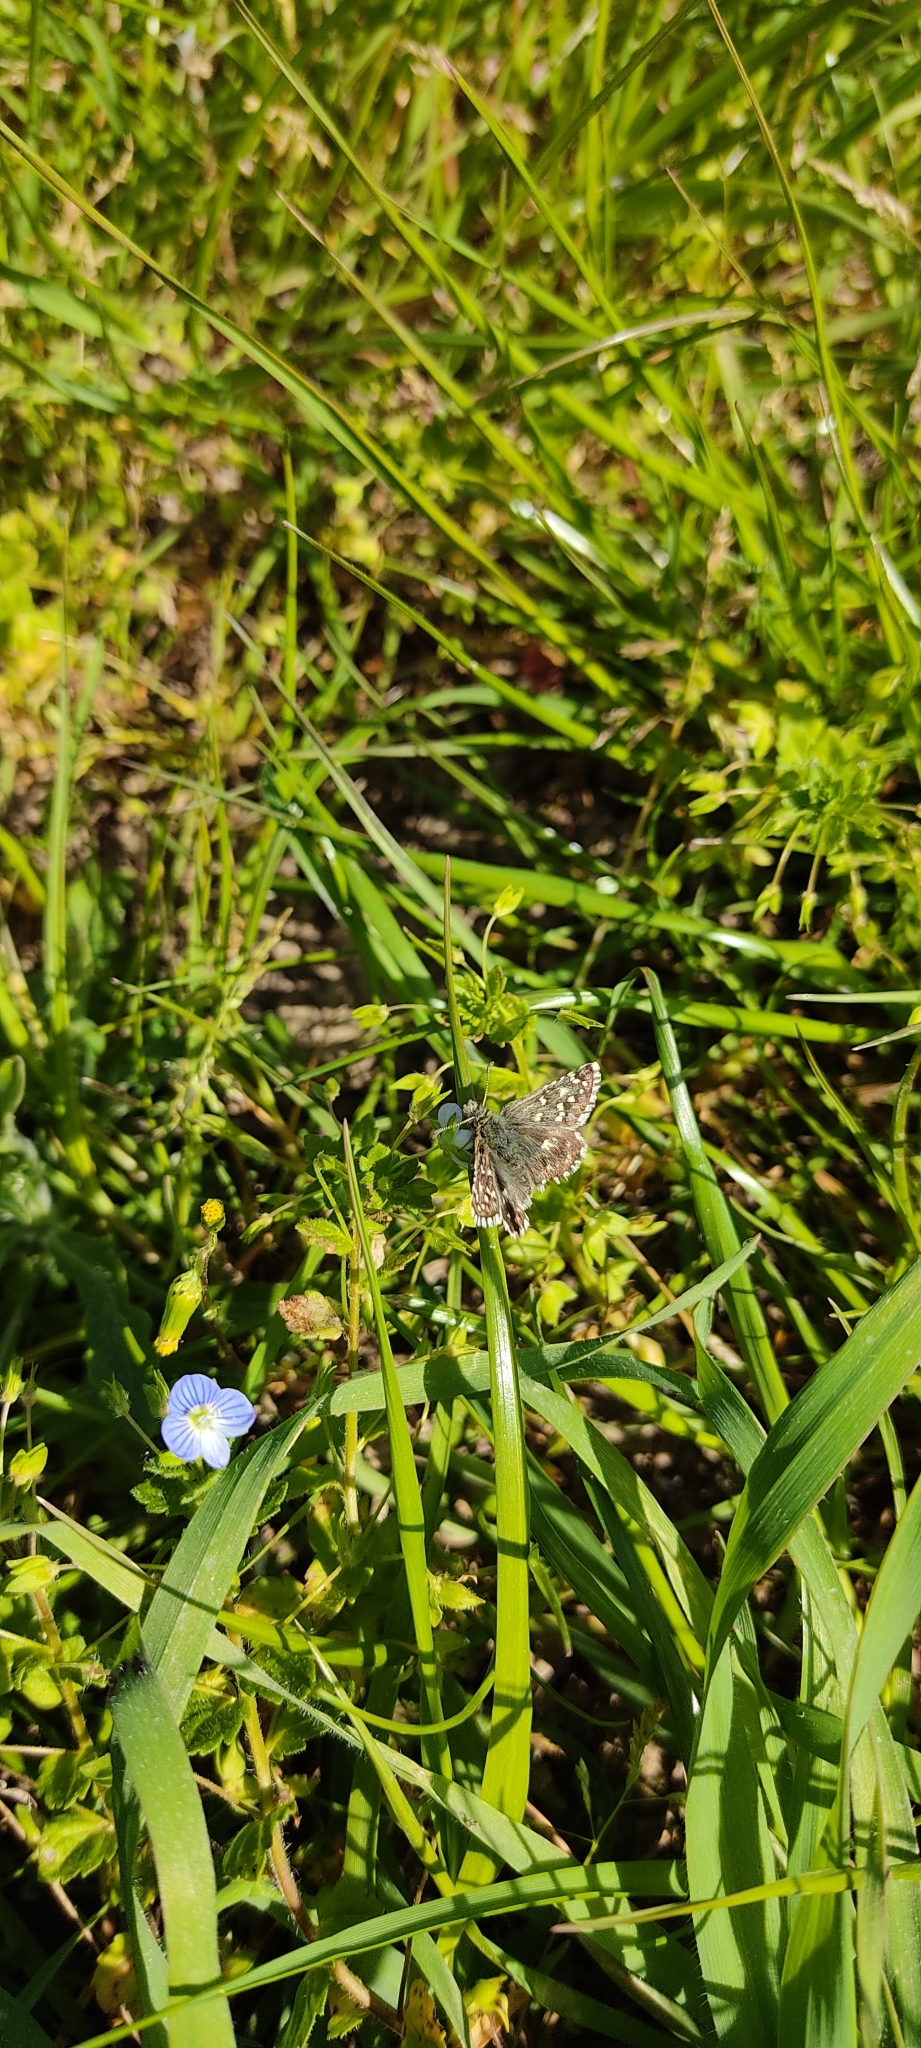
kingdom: Animalia
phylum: Arthropoda
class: Insecta
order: Lepidoptera
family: Hesperiidae
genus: Pyrgus
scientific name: Pyrgus malvoides
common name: Southern grizzled skipper
